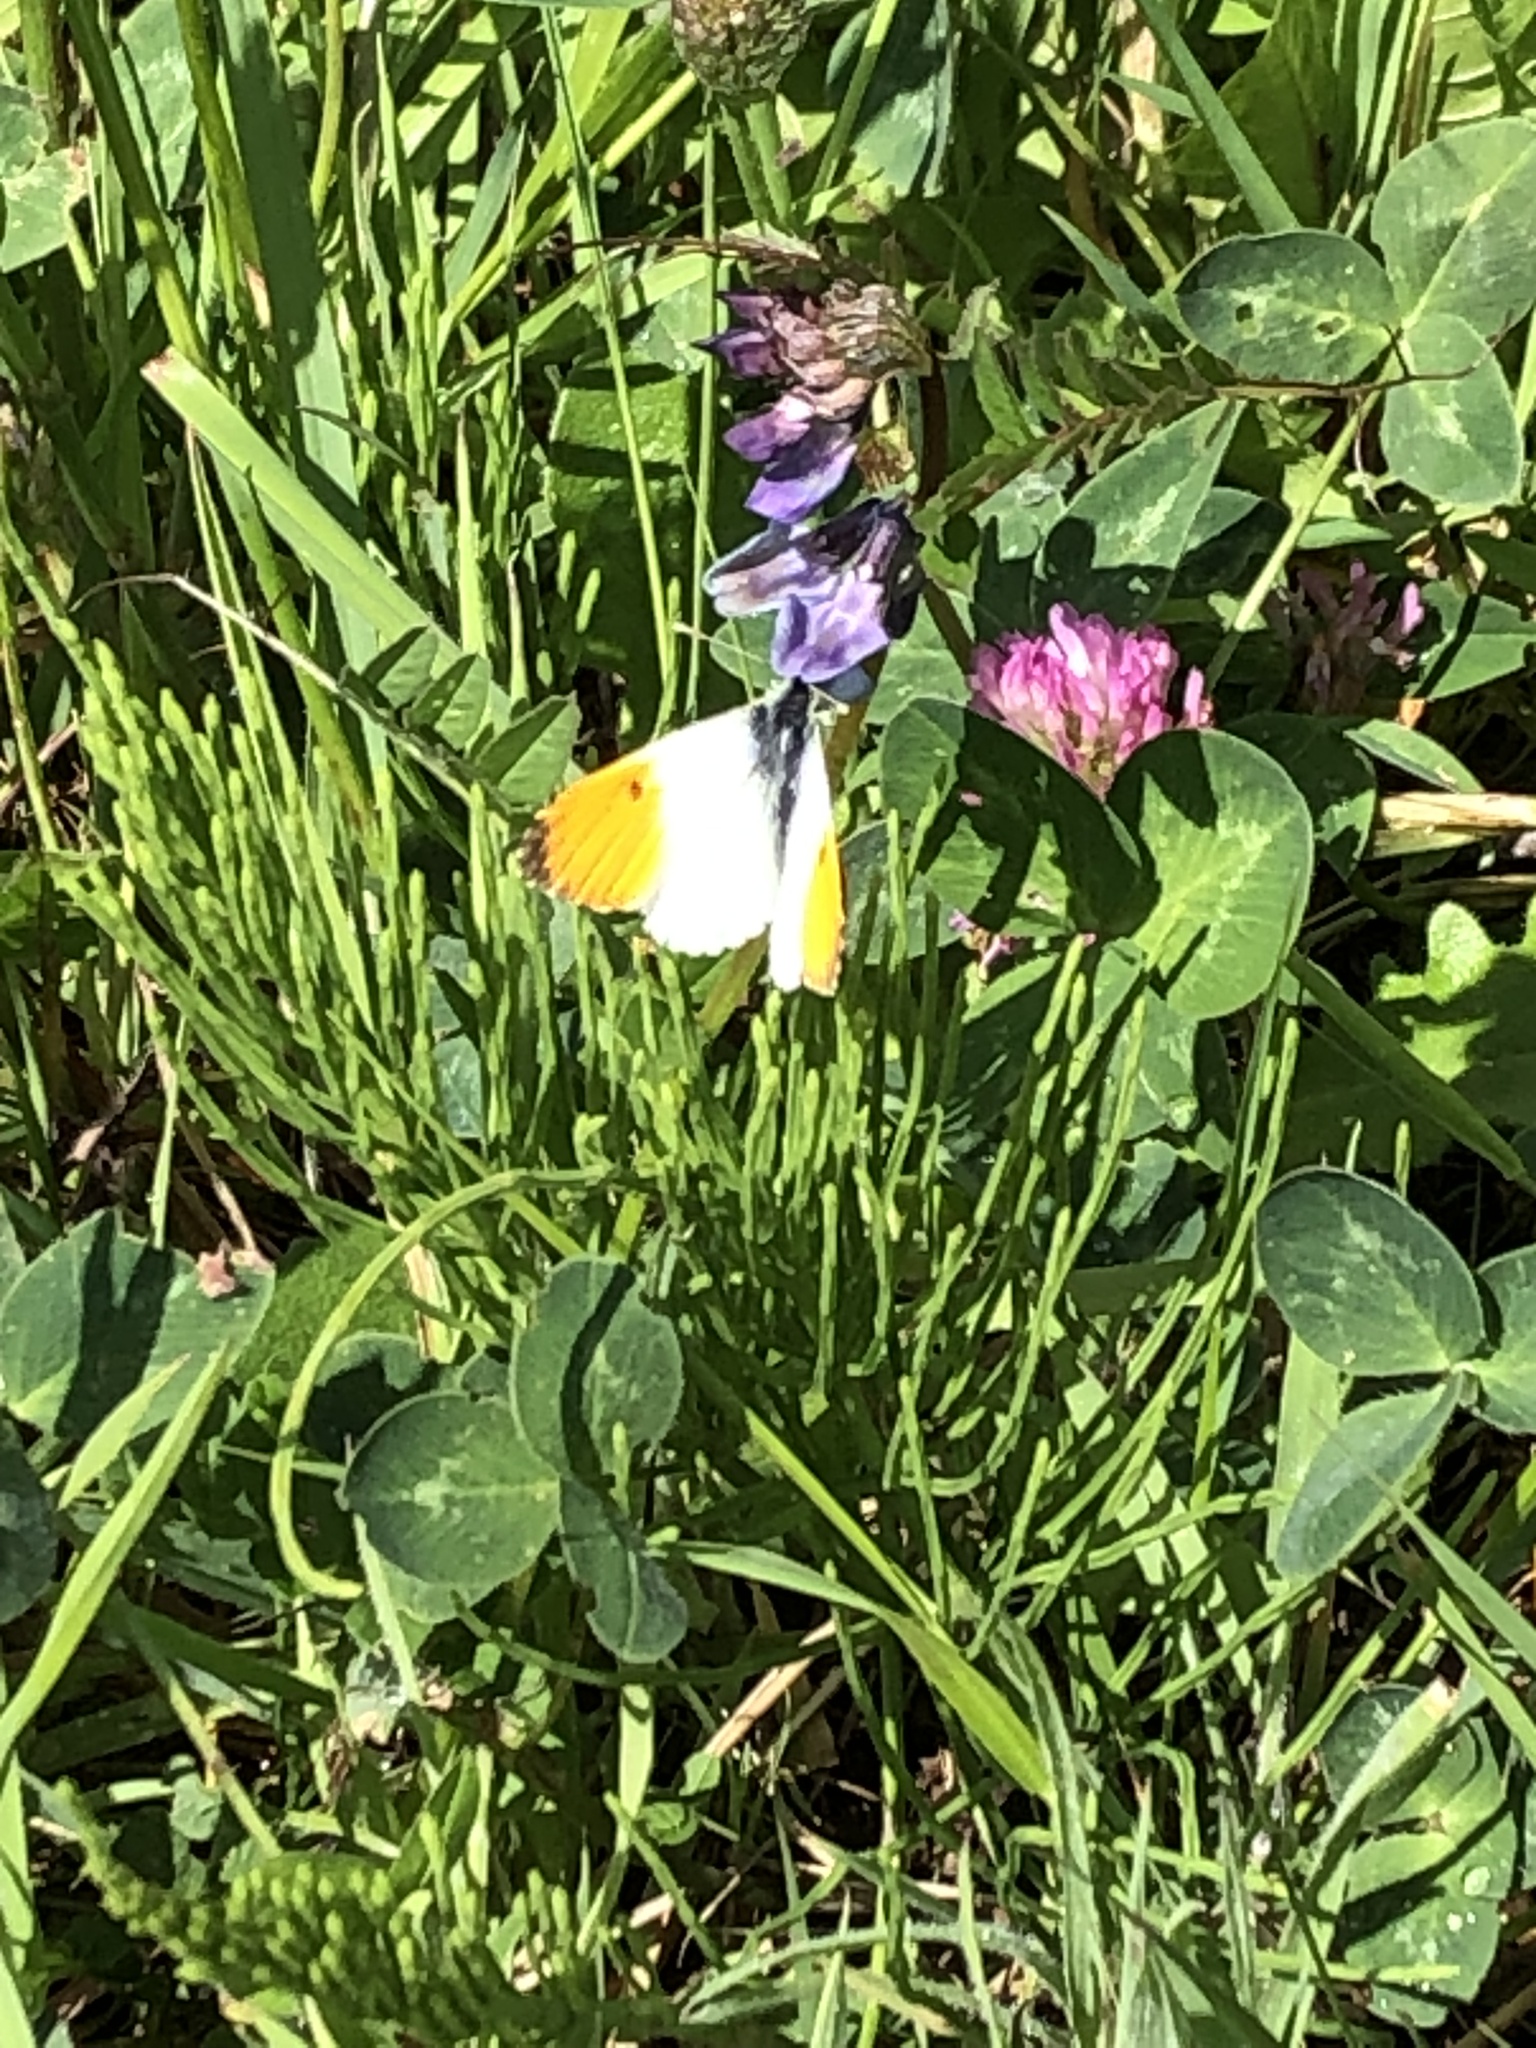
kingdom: Animalia
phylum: Arthropoda
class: Insecta
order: Lepidoptera
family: Pieridae
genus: Anthocharis
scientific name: Anthocharis cardamines
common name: Orange-tip
